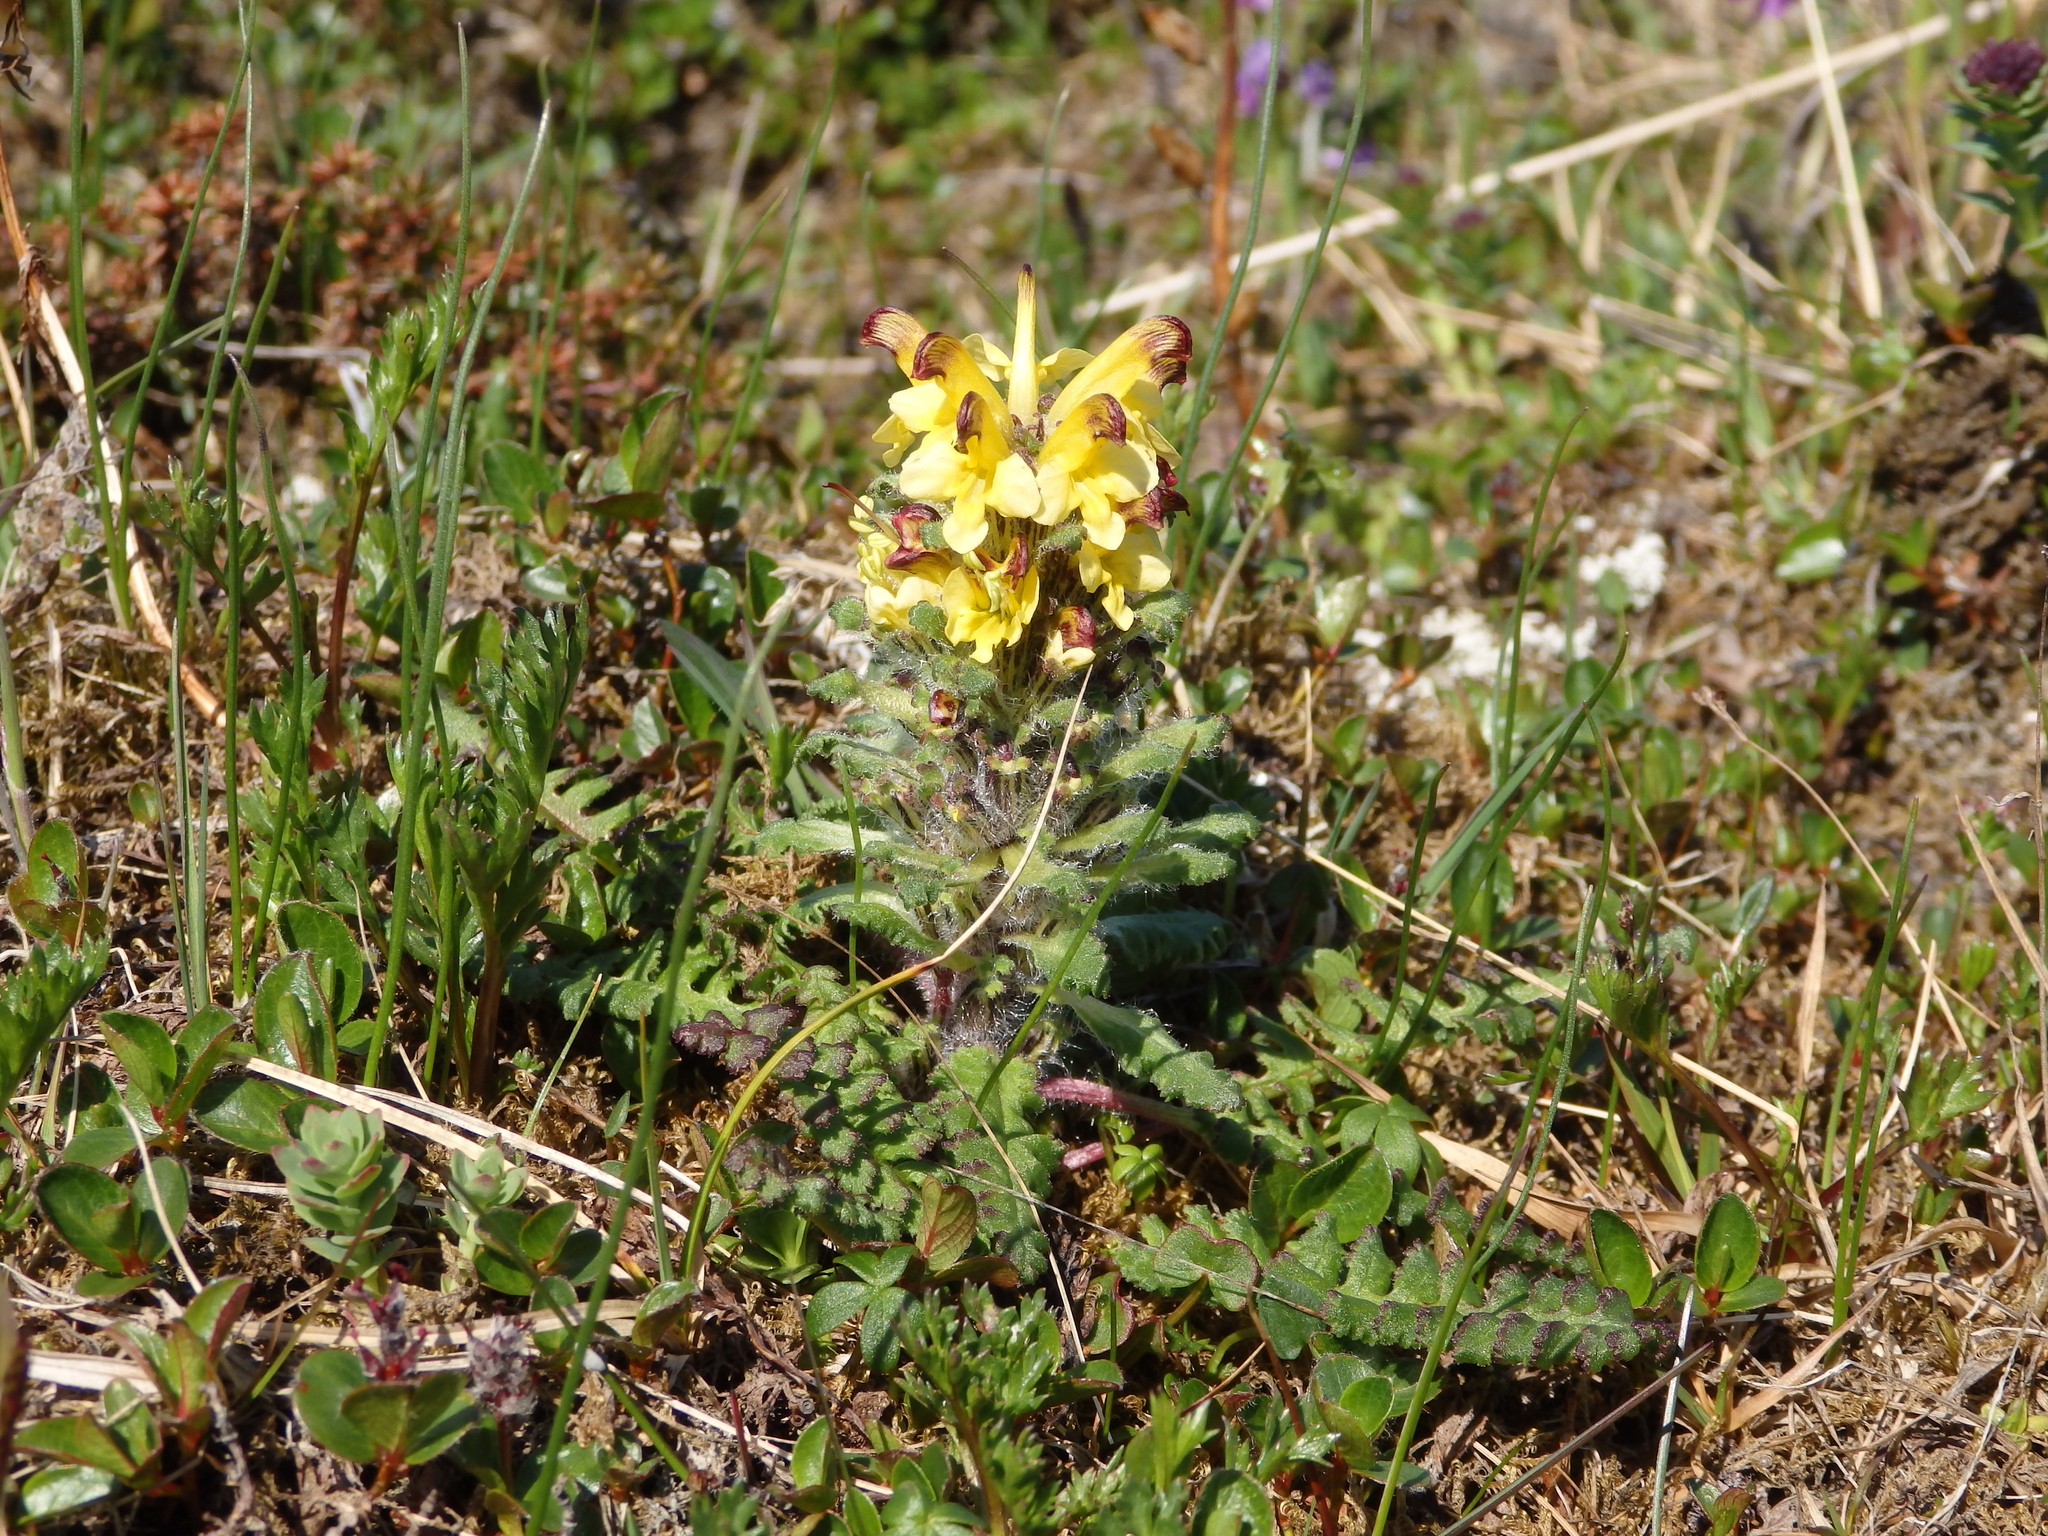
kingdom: Plantae
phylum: Tracheophyta
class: Magnoliopsida
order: Lamiales
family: Orobanchaceae
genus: Pedicularis
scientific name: Pedicularis oederi
